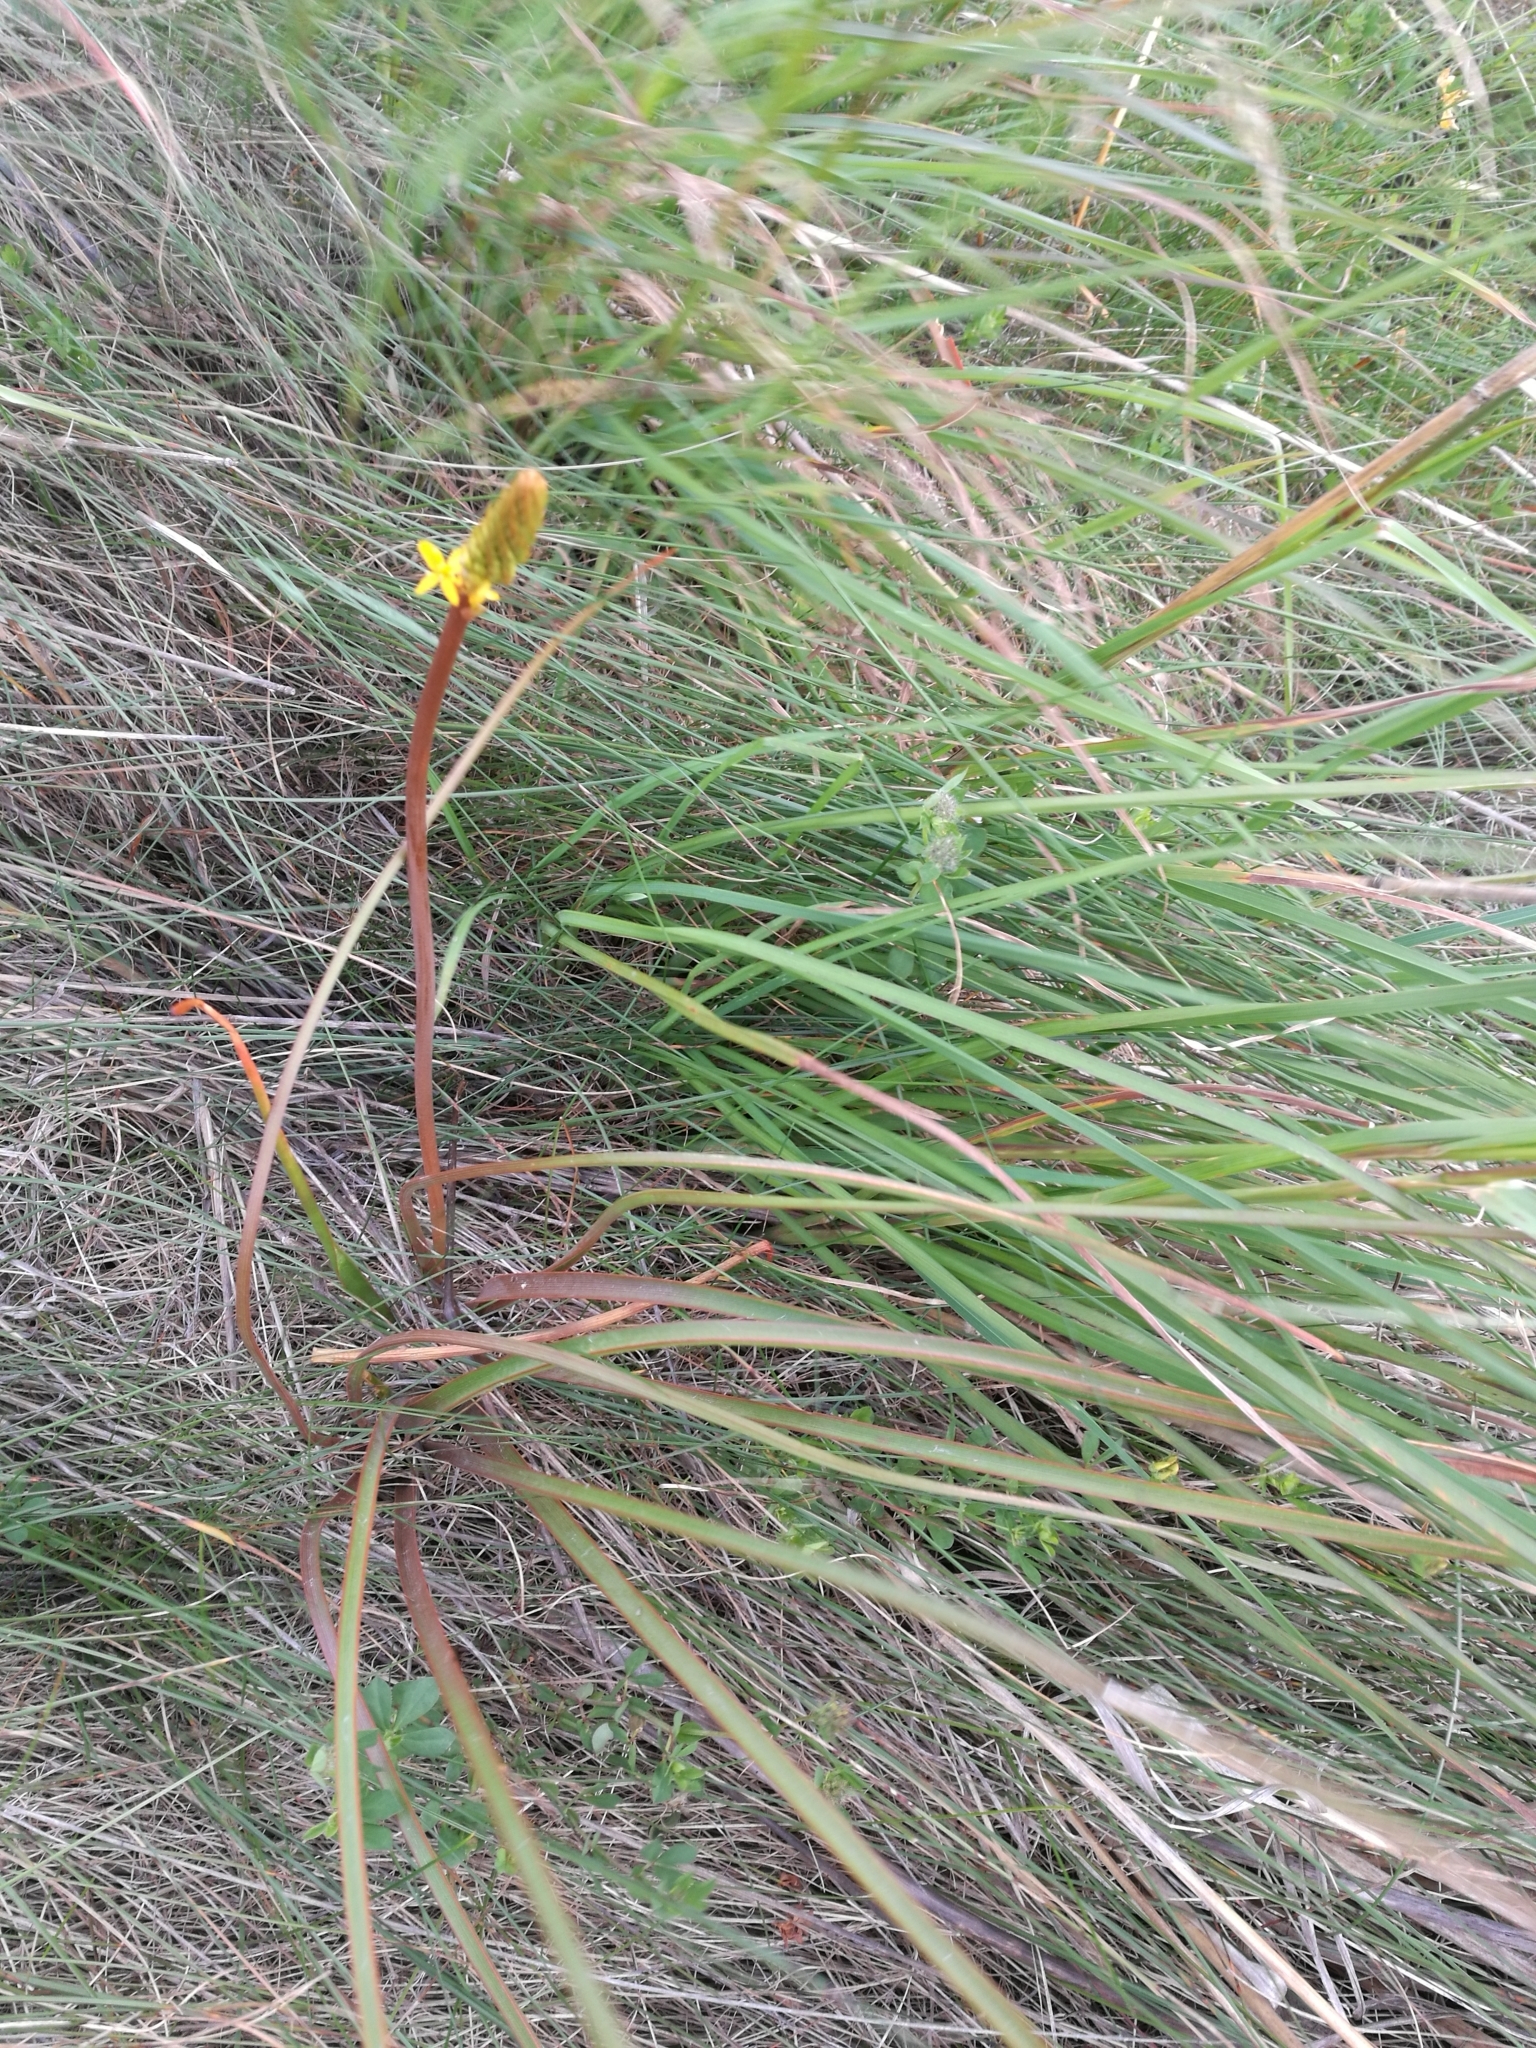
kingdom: Plantae
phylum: Tracheophyta
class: Liliopsida
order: Asparagales
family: Asphodelaceae
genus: Bulbinella
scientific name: Bulbinella angustifolia
